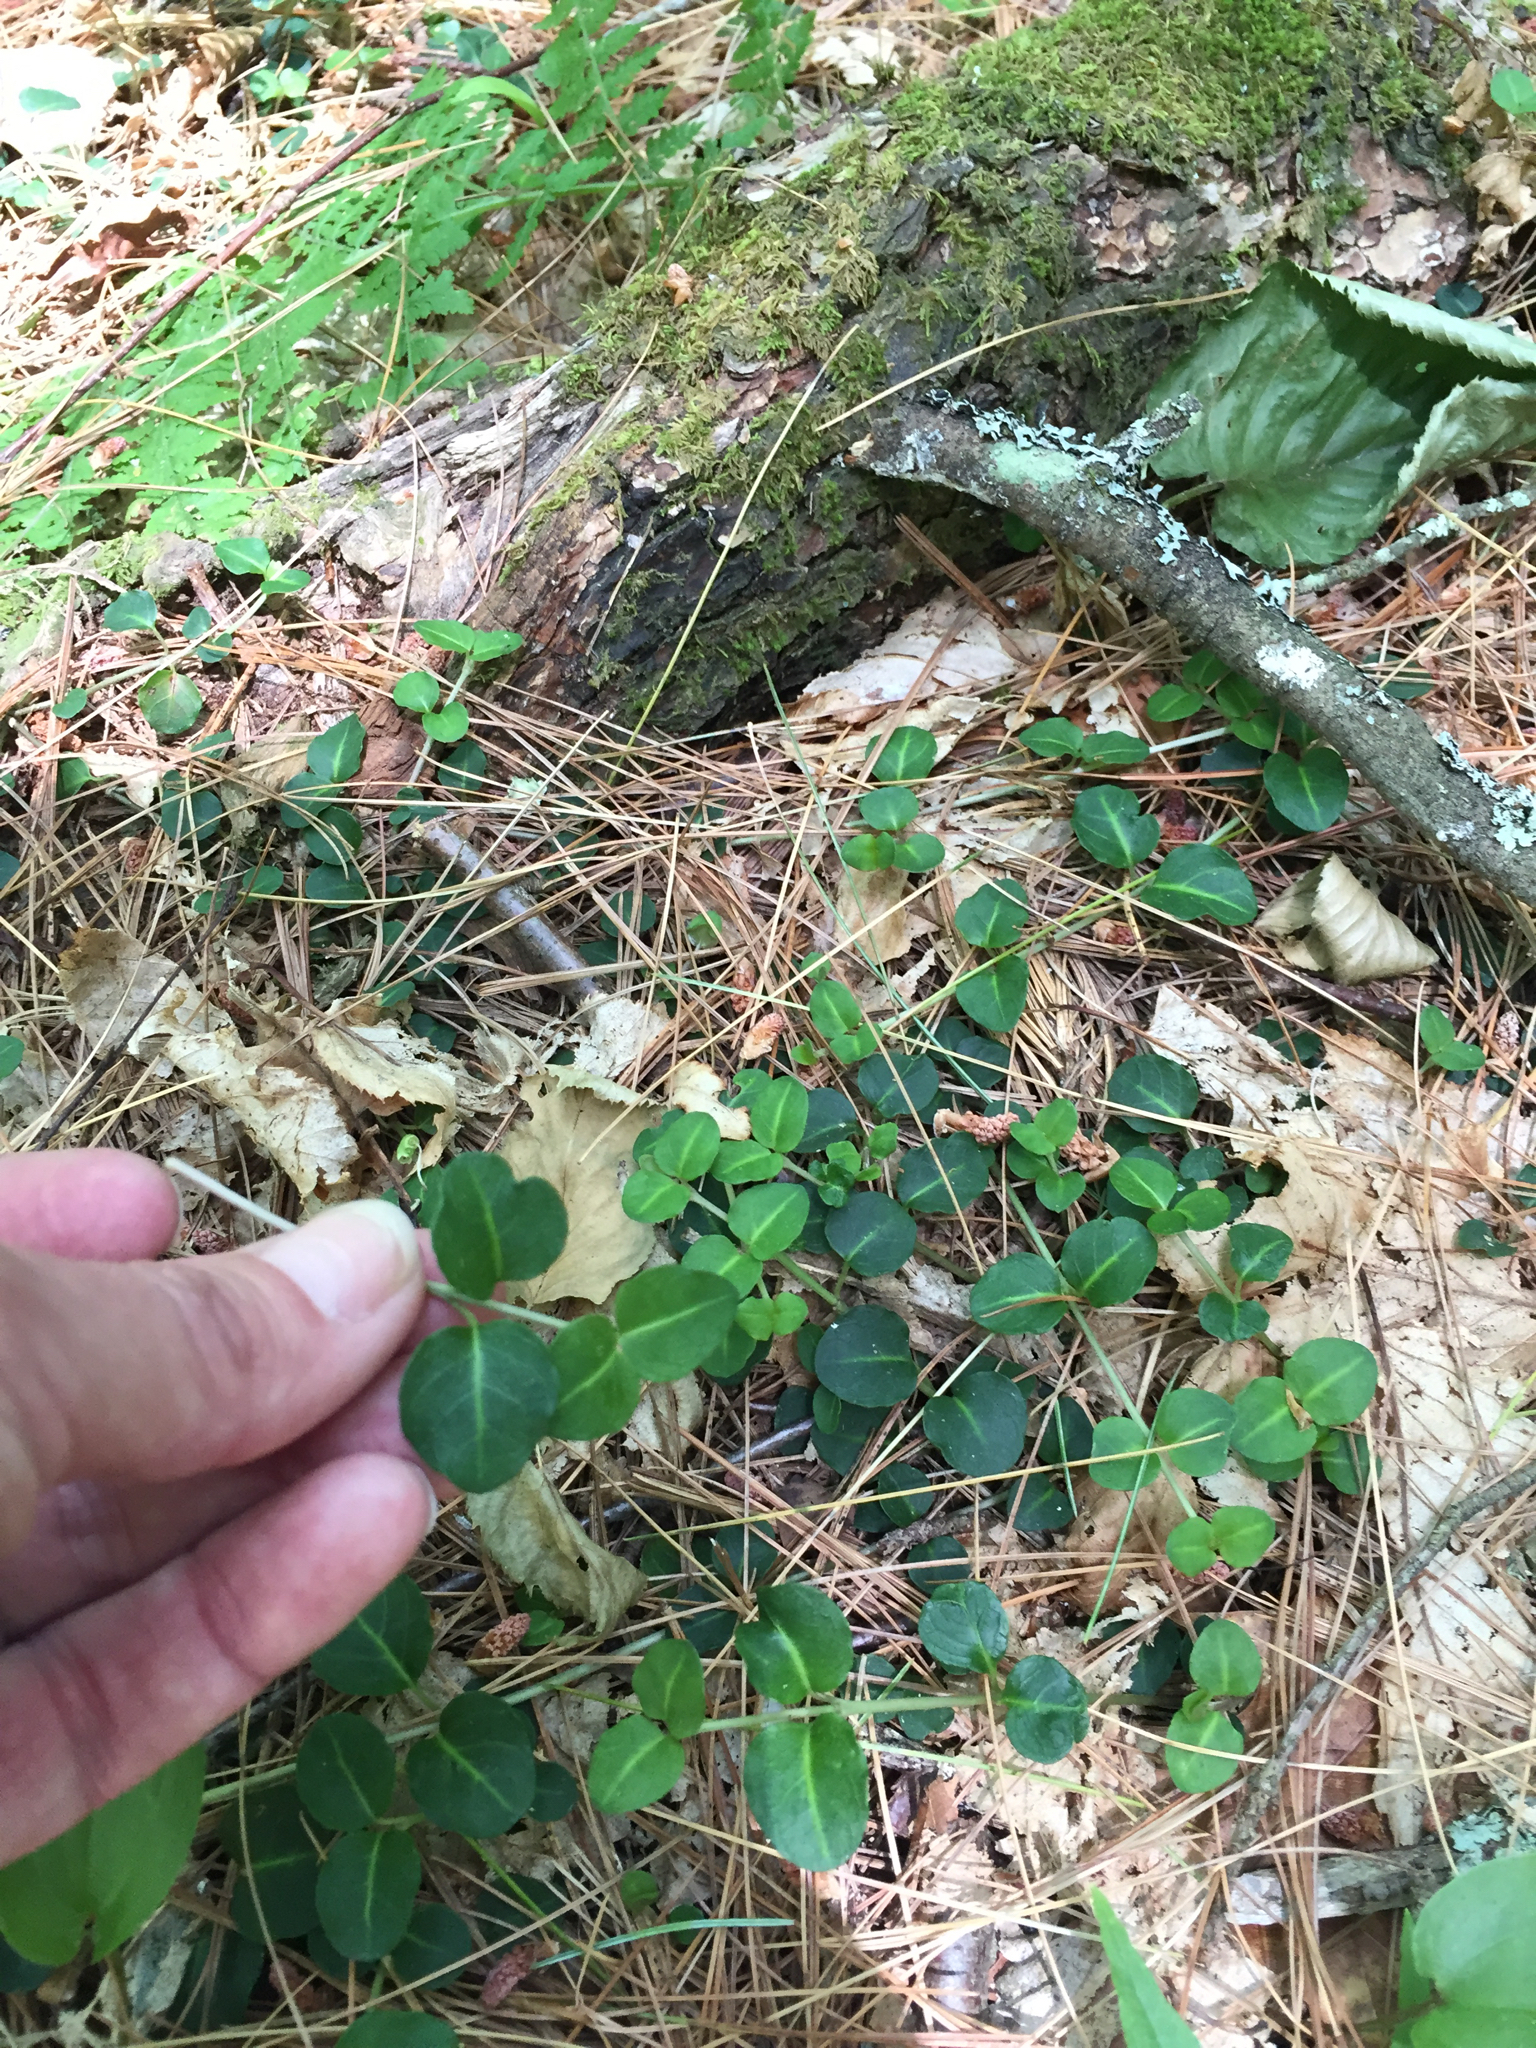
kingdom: Plantae
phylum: Tracheophyta
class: Magnoliopsida
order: Gentianales
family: Rubiaceae
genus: Mitchella
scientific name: Mitchella repens
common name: Partridge-berry
